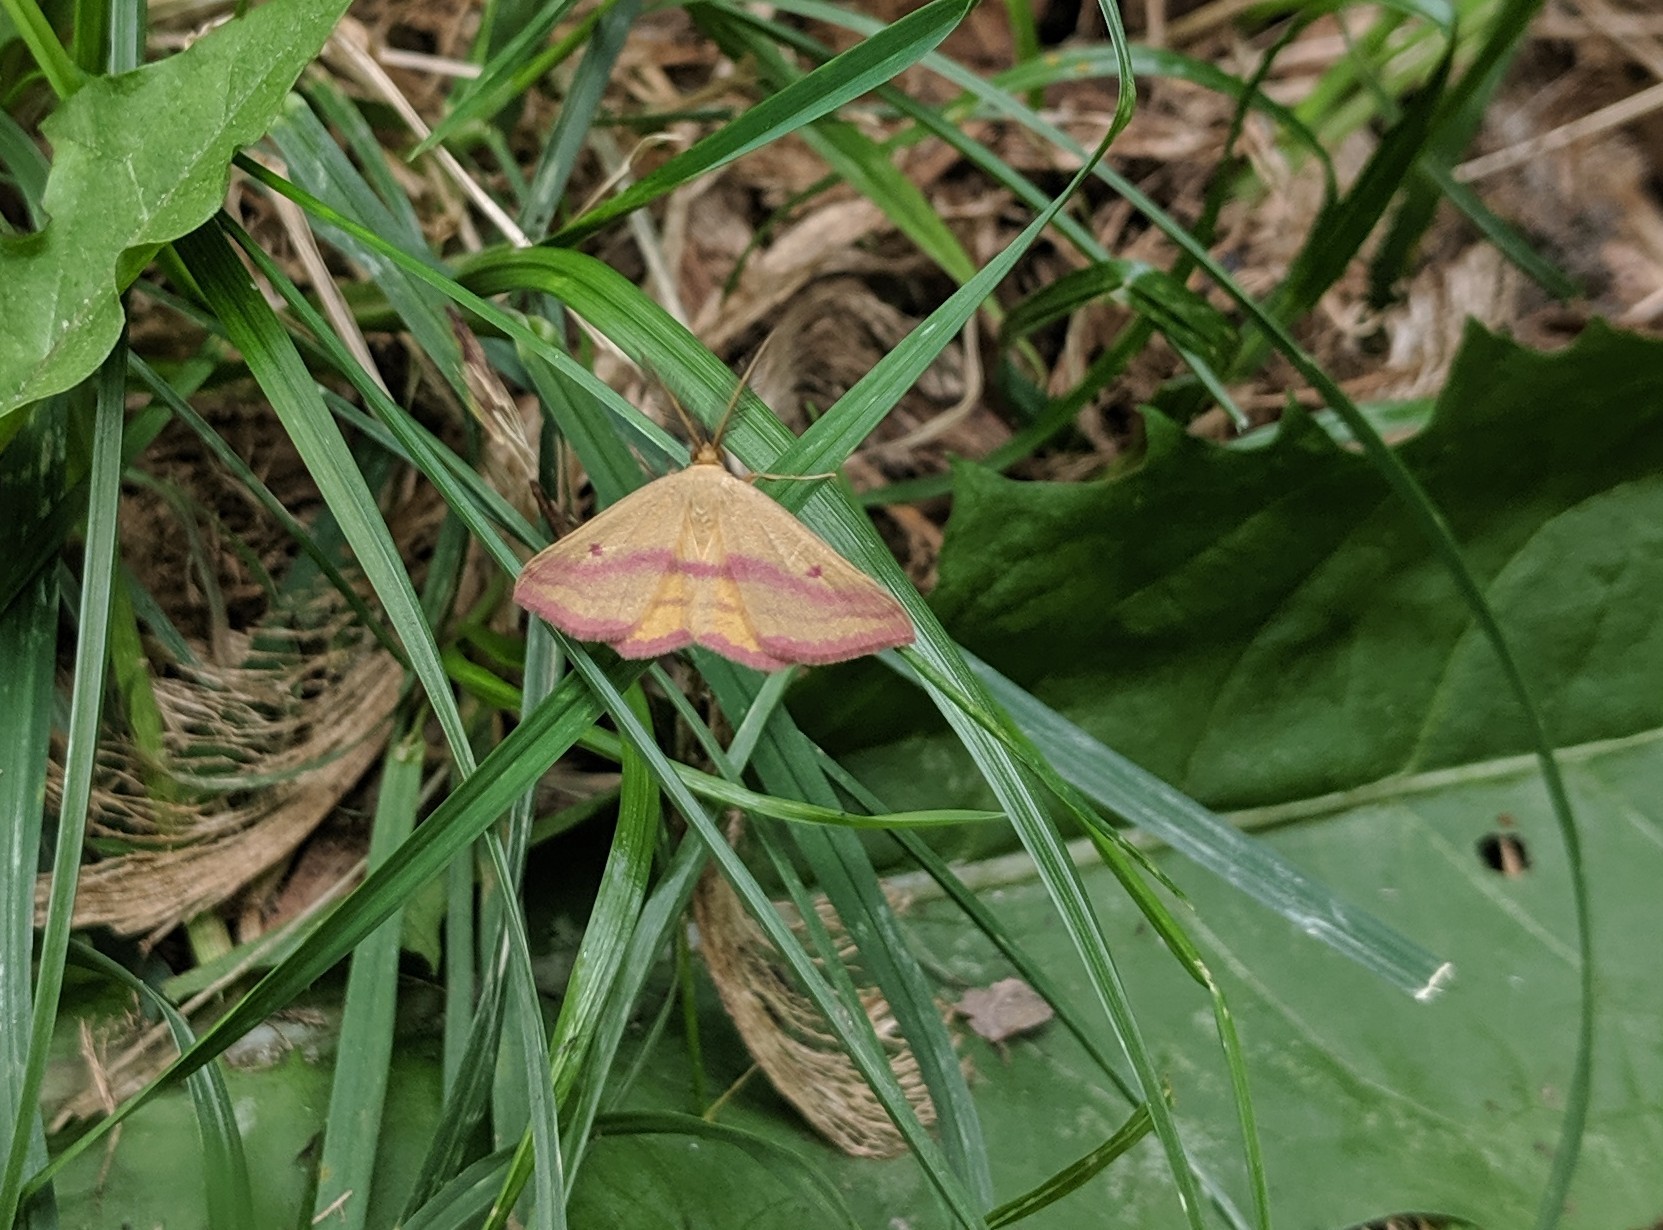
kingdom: Animalia
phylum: Arthropoda
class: Insecta
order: Lepidoptera
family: Geometridae
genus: Haematopis
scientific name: Haematopis grataria
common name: Chickweed geometer
